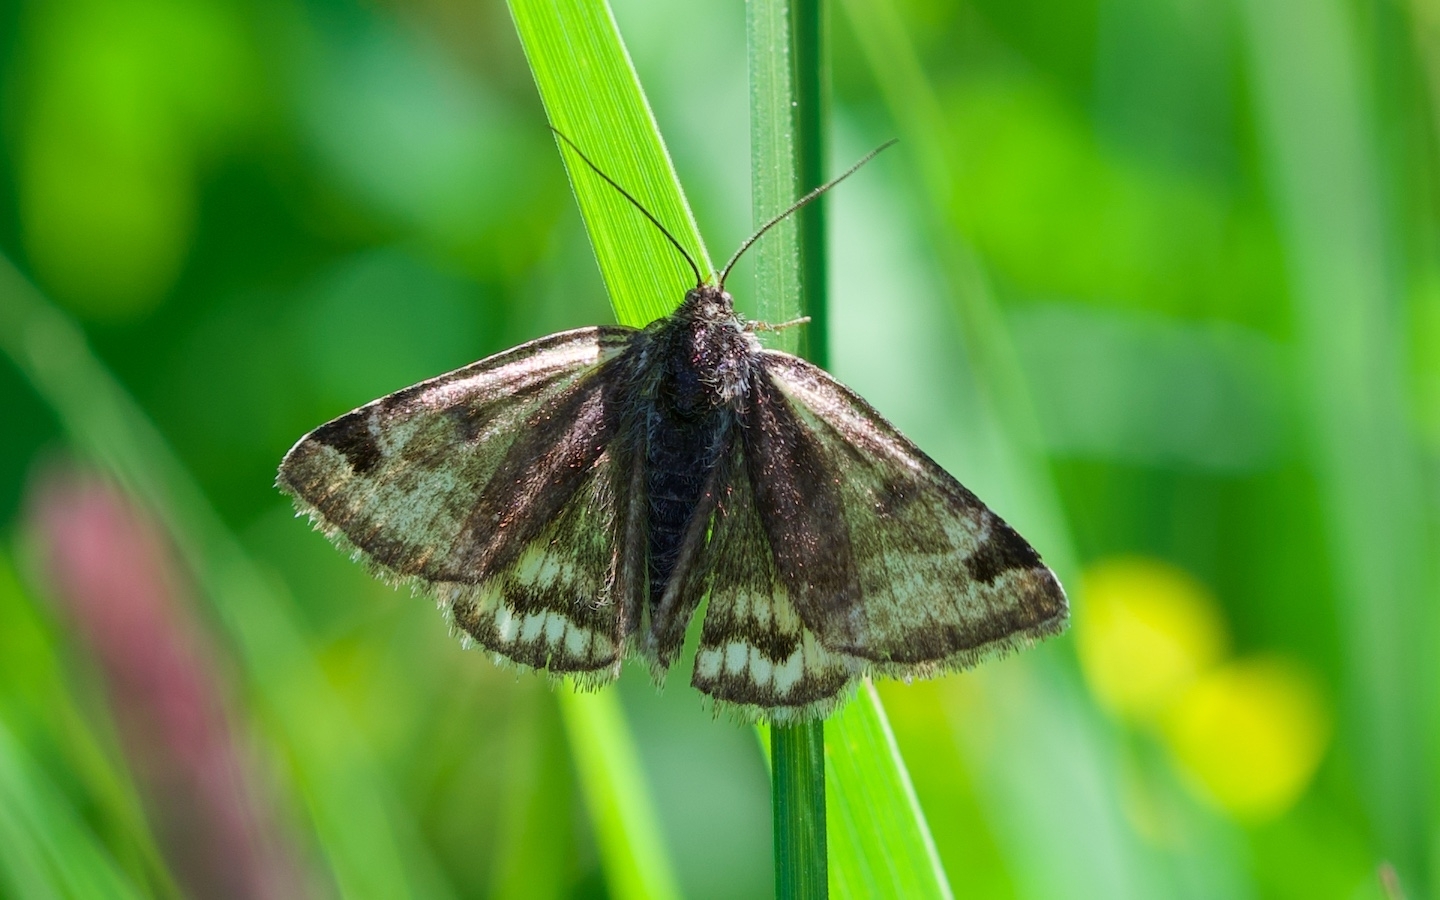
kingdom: Animalia
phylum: Arthropoda
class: Insecta
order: Lepidoptera
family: Erebidae
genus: Euclidia
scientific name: Euclidia glyphica
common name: Burnet companion
